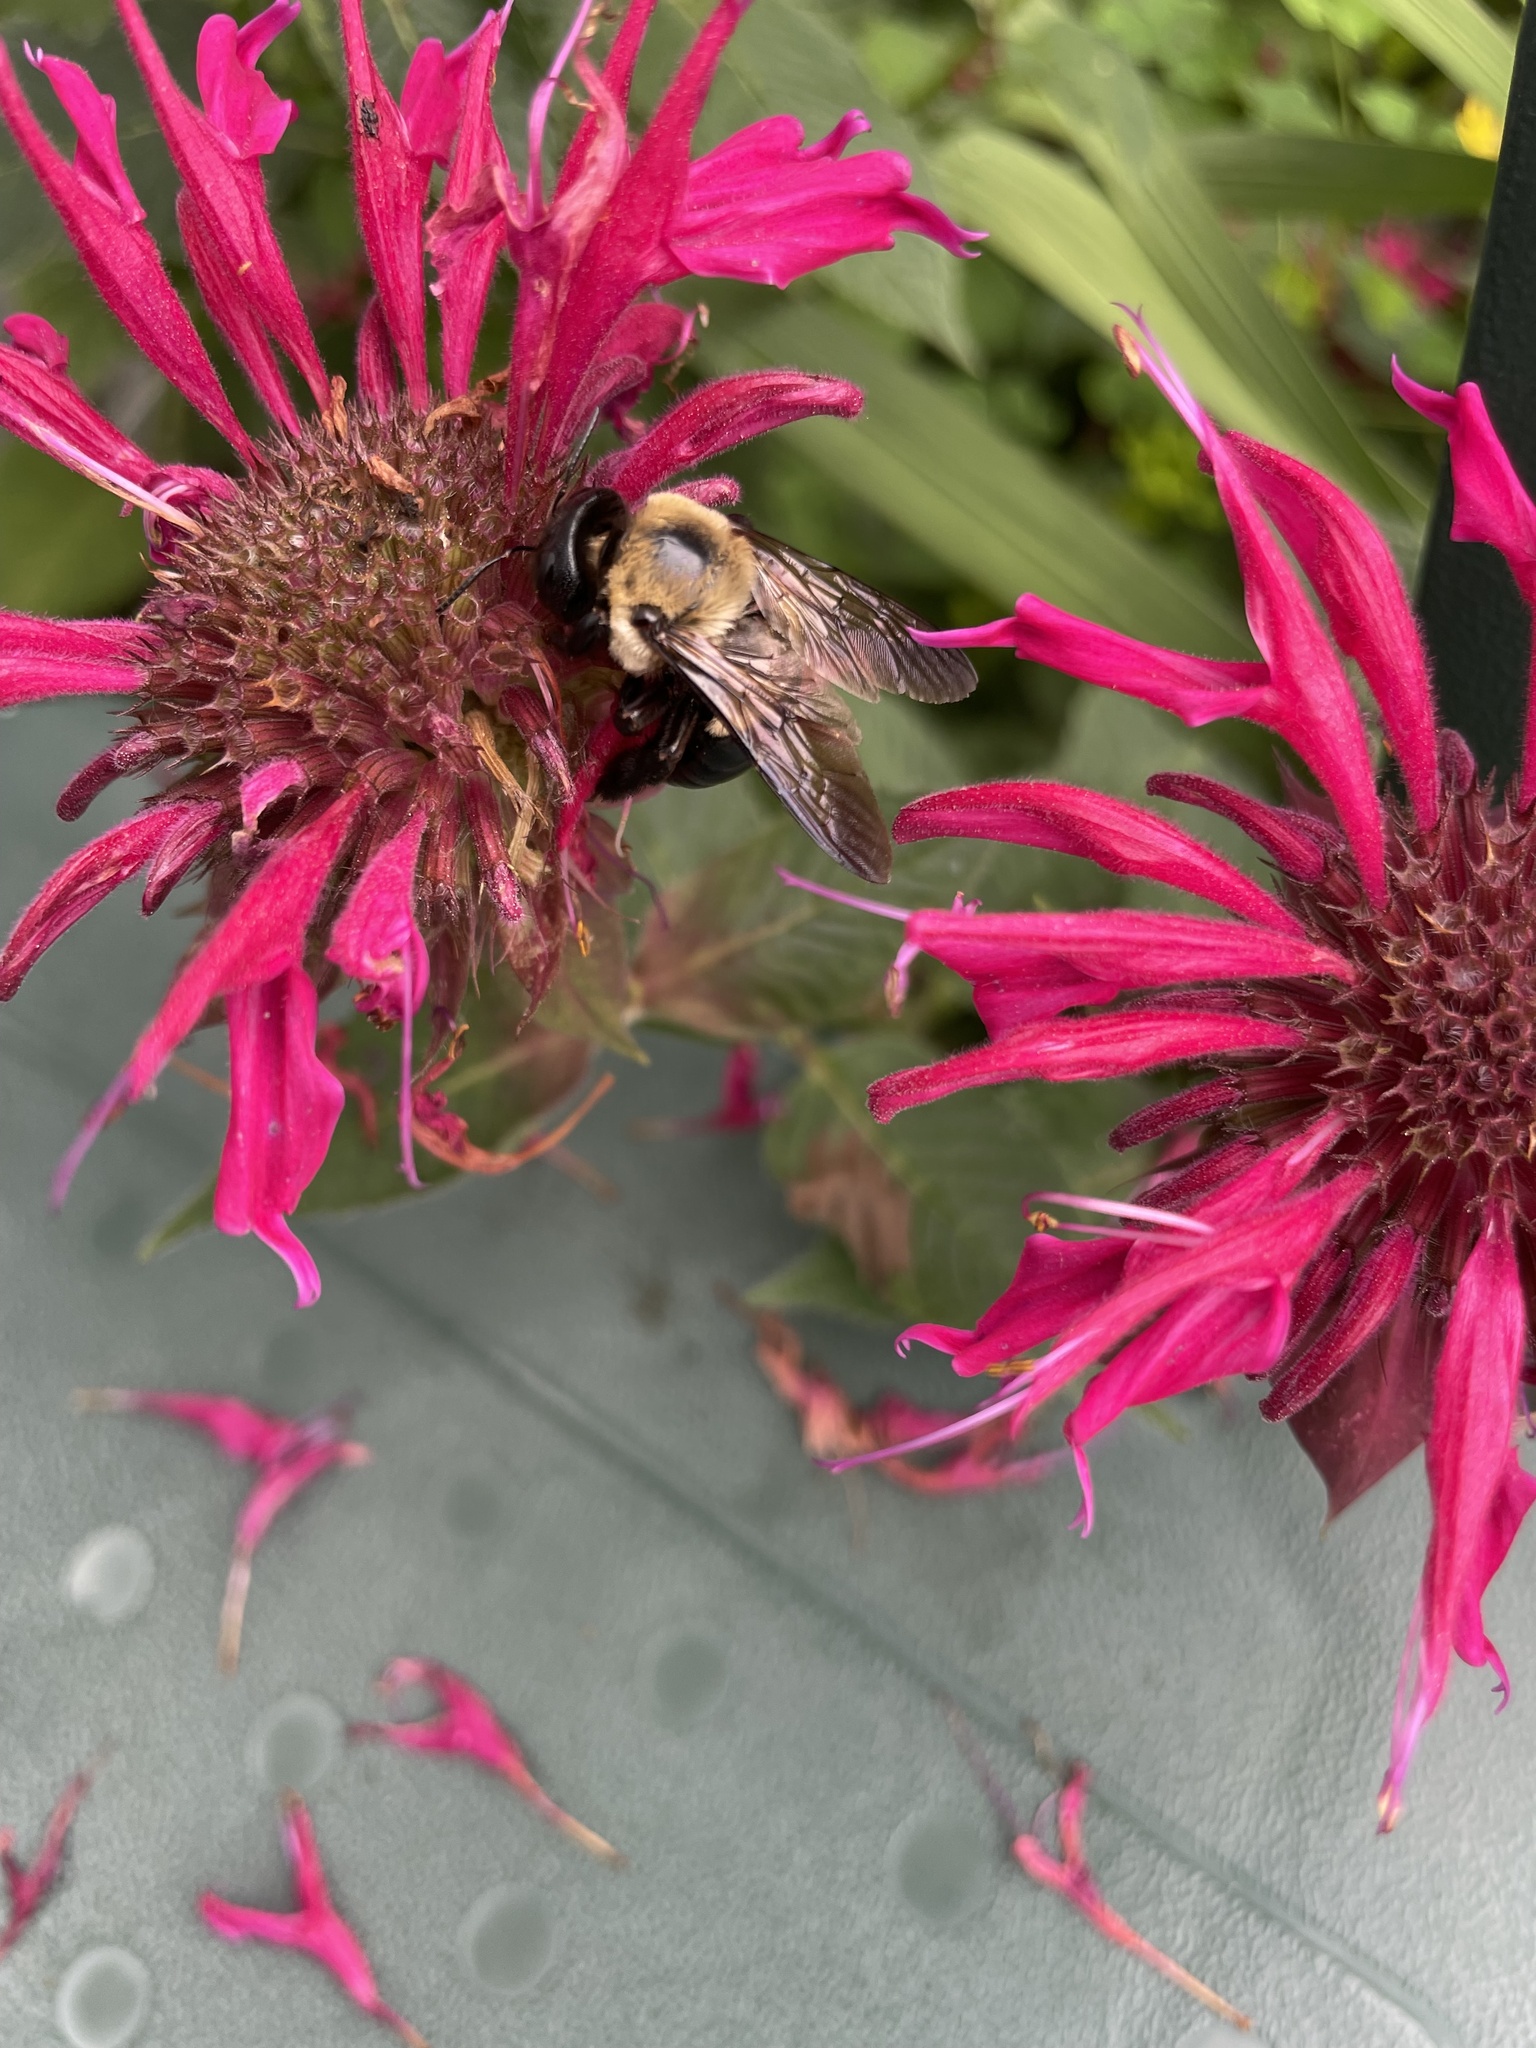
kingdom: Animalia
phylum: Arthropoda
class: Insecta
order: Hymenoptera
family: Apidae
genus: Xylocopa
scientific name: Xylocopa virginica
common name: Carpenter bee
